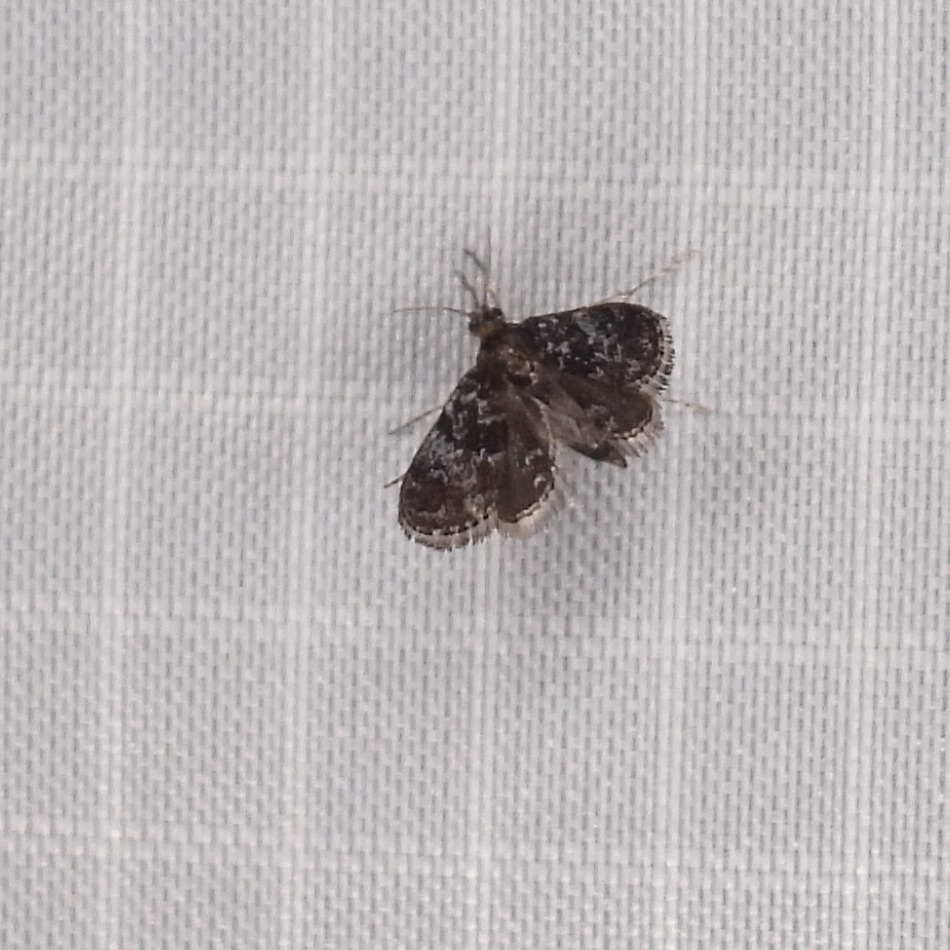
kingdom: Animalia
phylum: Arthropoda
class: Insecta
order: Lepidoptera
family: Crambidae
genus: Elophila
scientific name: Elophila tinealis
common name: Black duckweed moth
